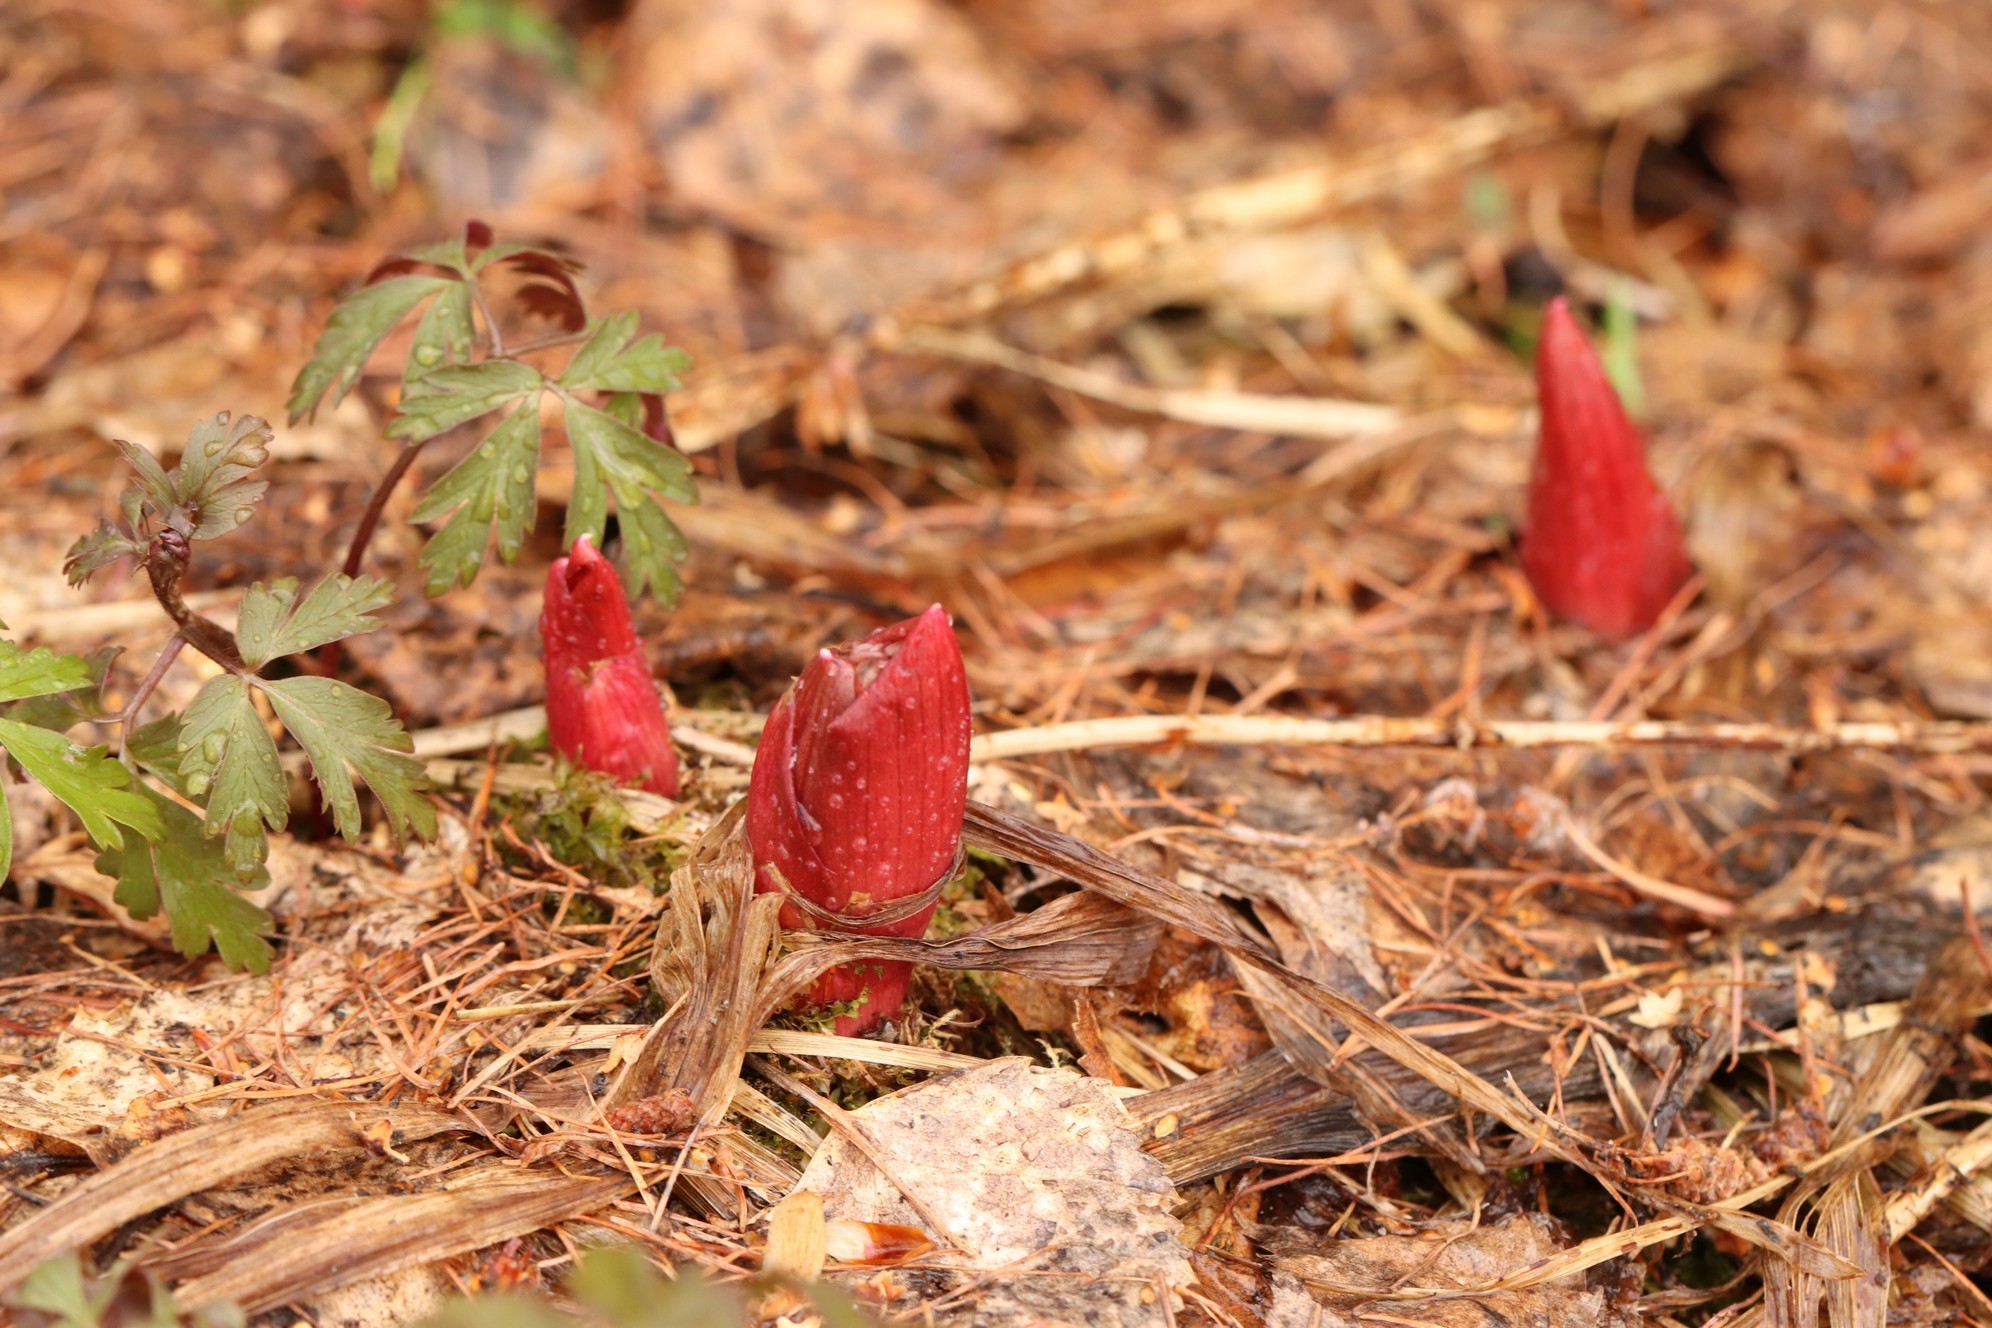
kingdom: Plantae
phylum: Tracheophyta
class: Magnoliopsida
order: Saxifragales
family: Paeoniaceae
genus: Paeonia
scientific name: Paeonia anomala
